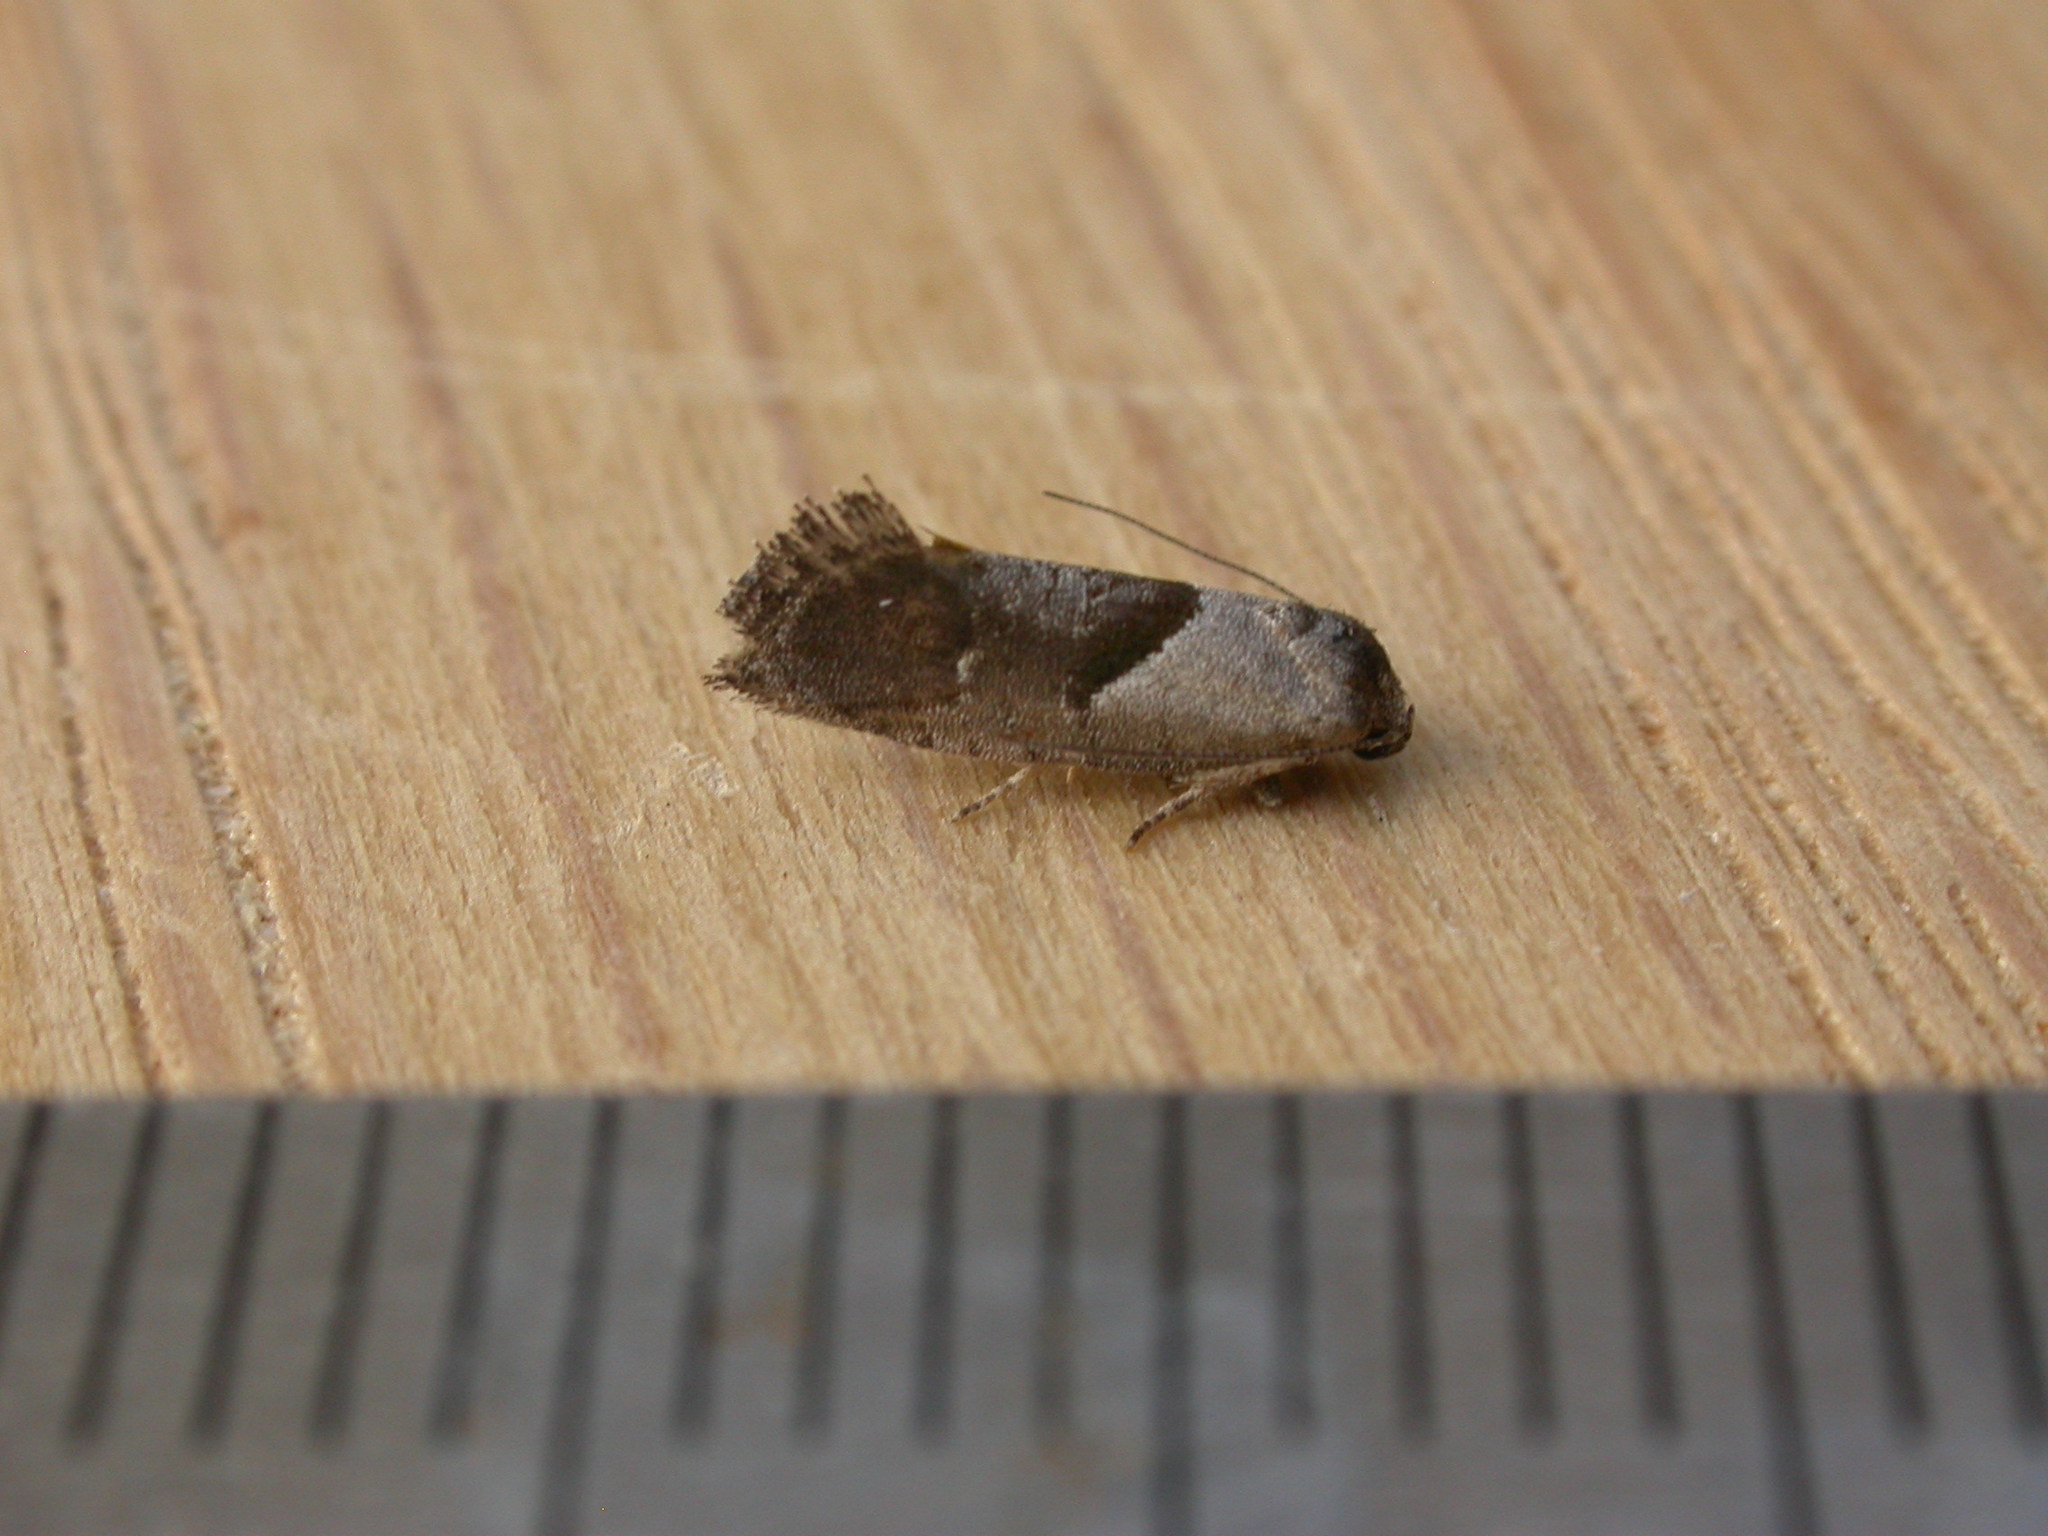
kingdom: Animalia
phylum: Arthropoda
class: Insecta
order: Lepidoptera
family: Depressariidae
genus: Eupselia
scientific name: Eupselia holoxantha
